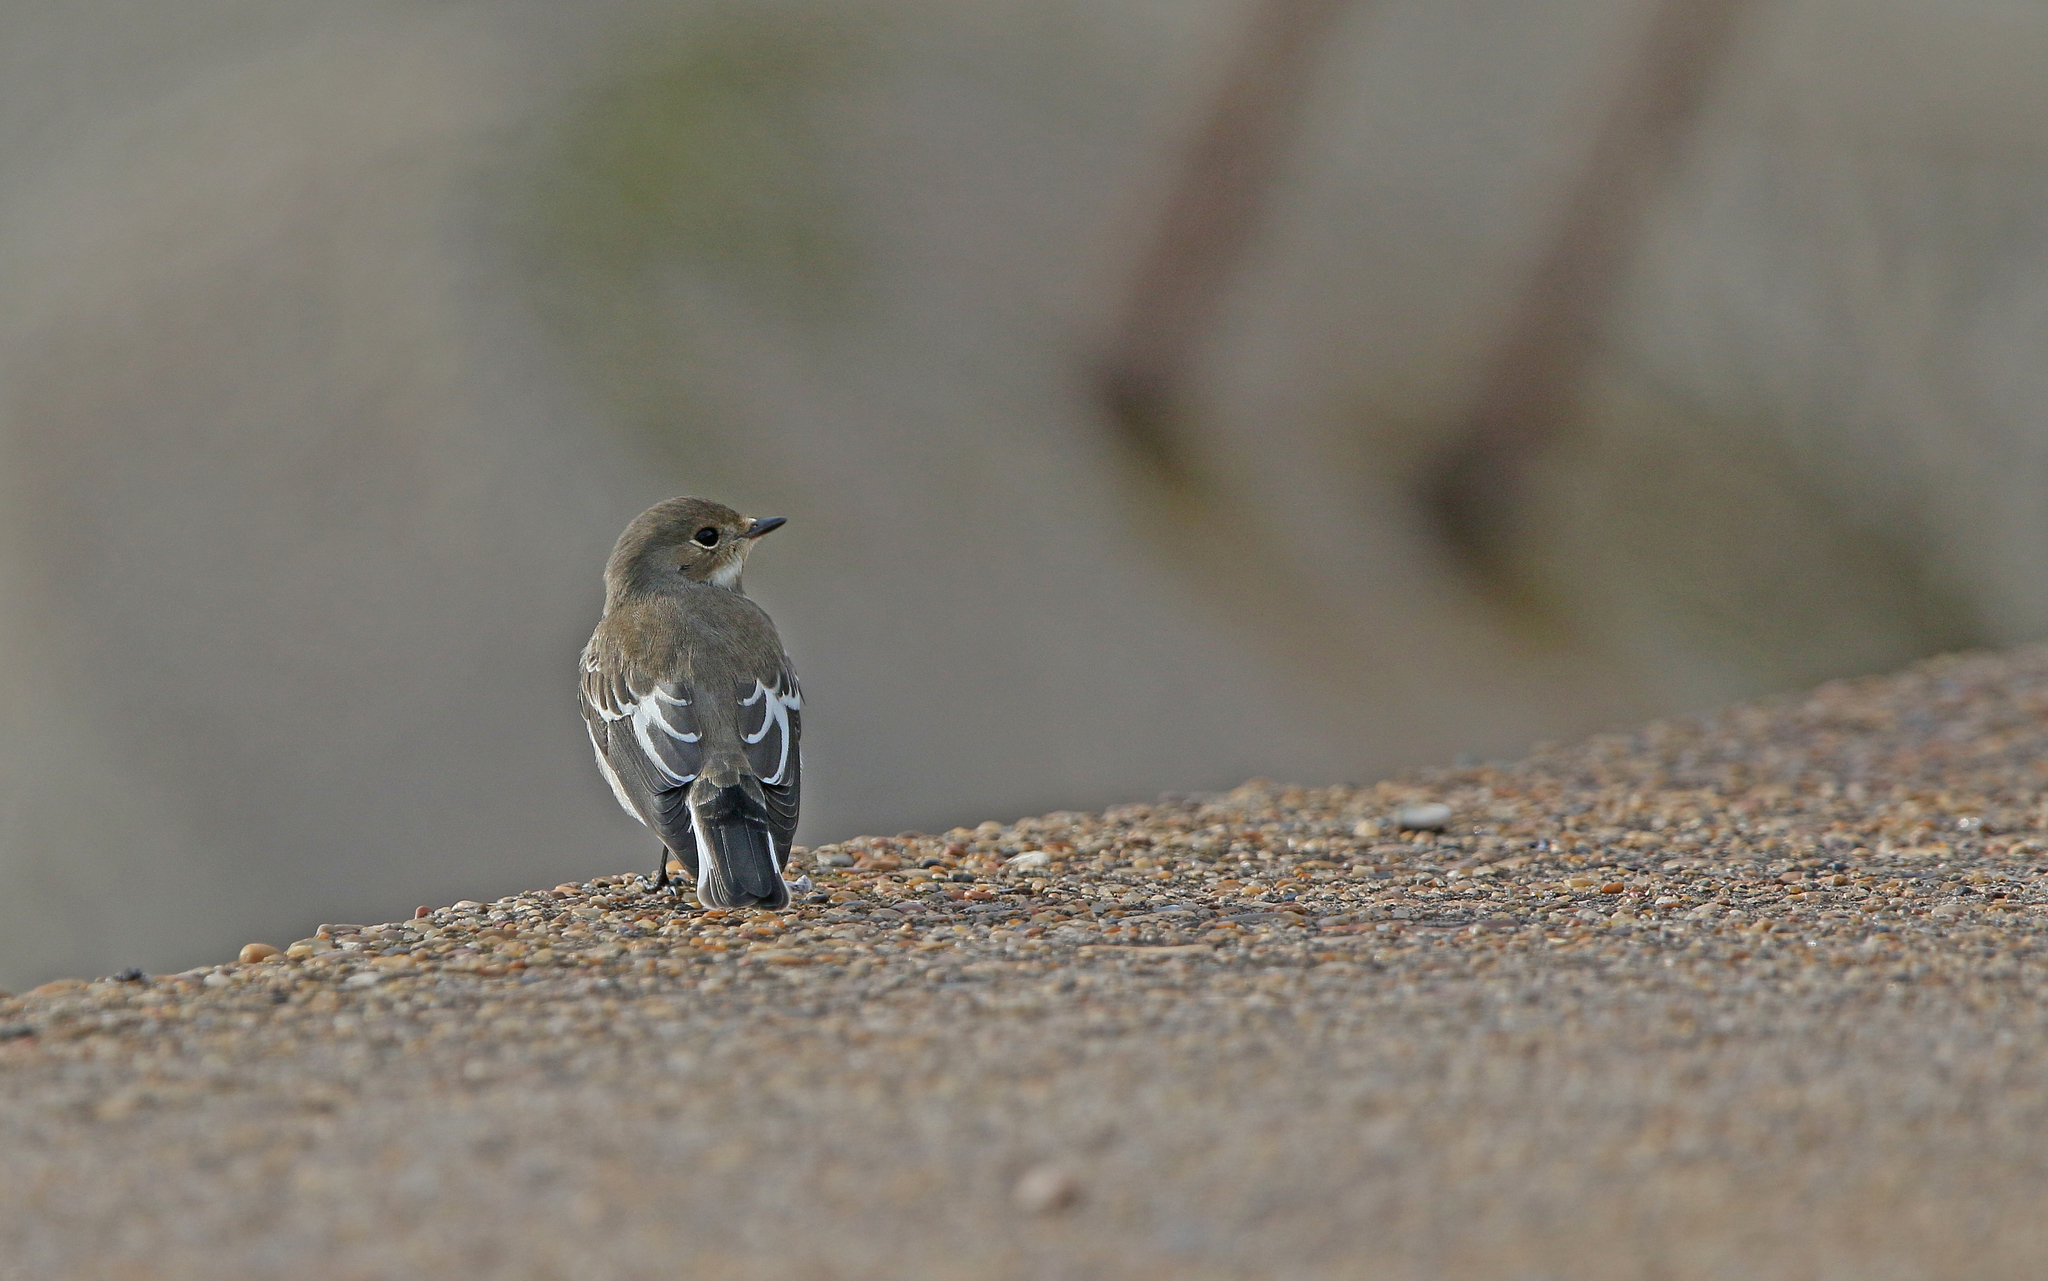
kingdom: Animalia
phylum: Chordata
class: Aves
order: Passeriformes
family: Muscicapidae
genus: Ficedula
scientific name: Ficedula hypoleuca
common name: European pied flycatcher
